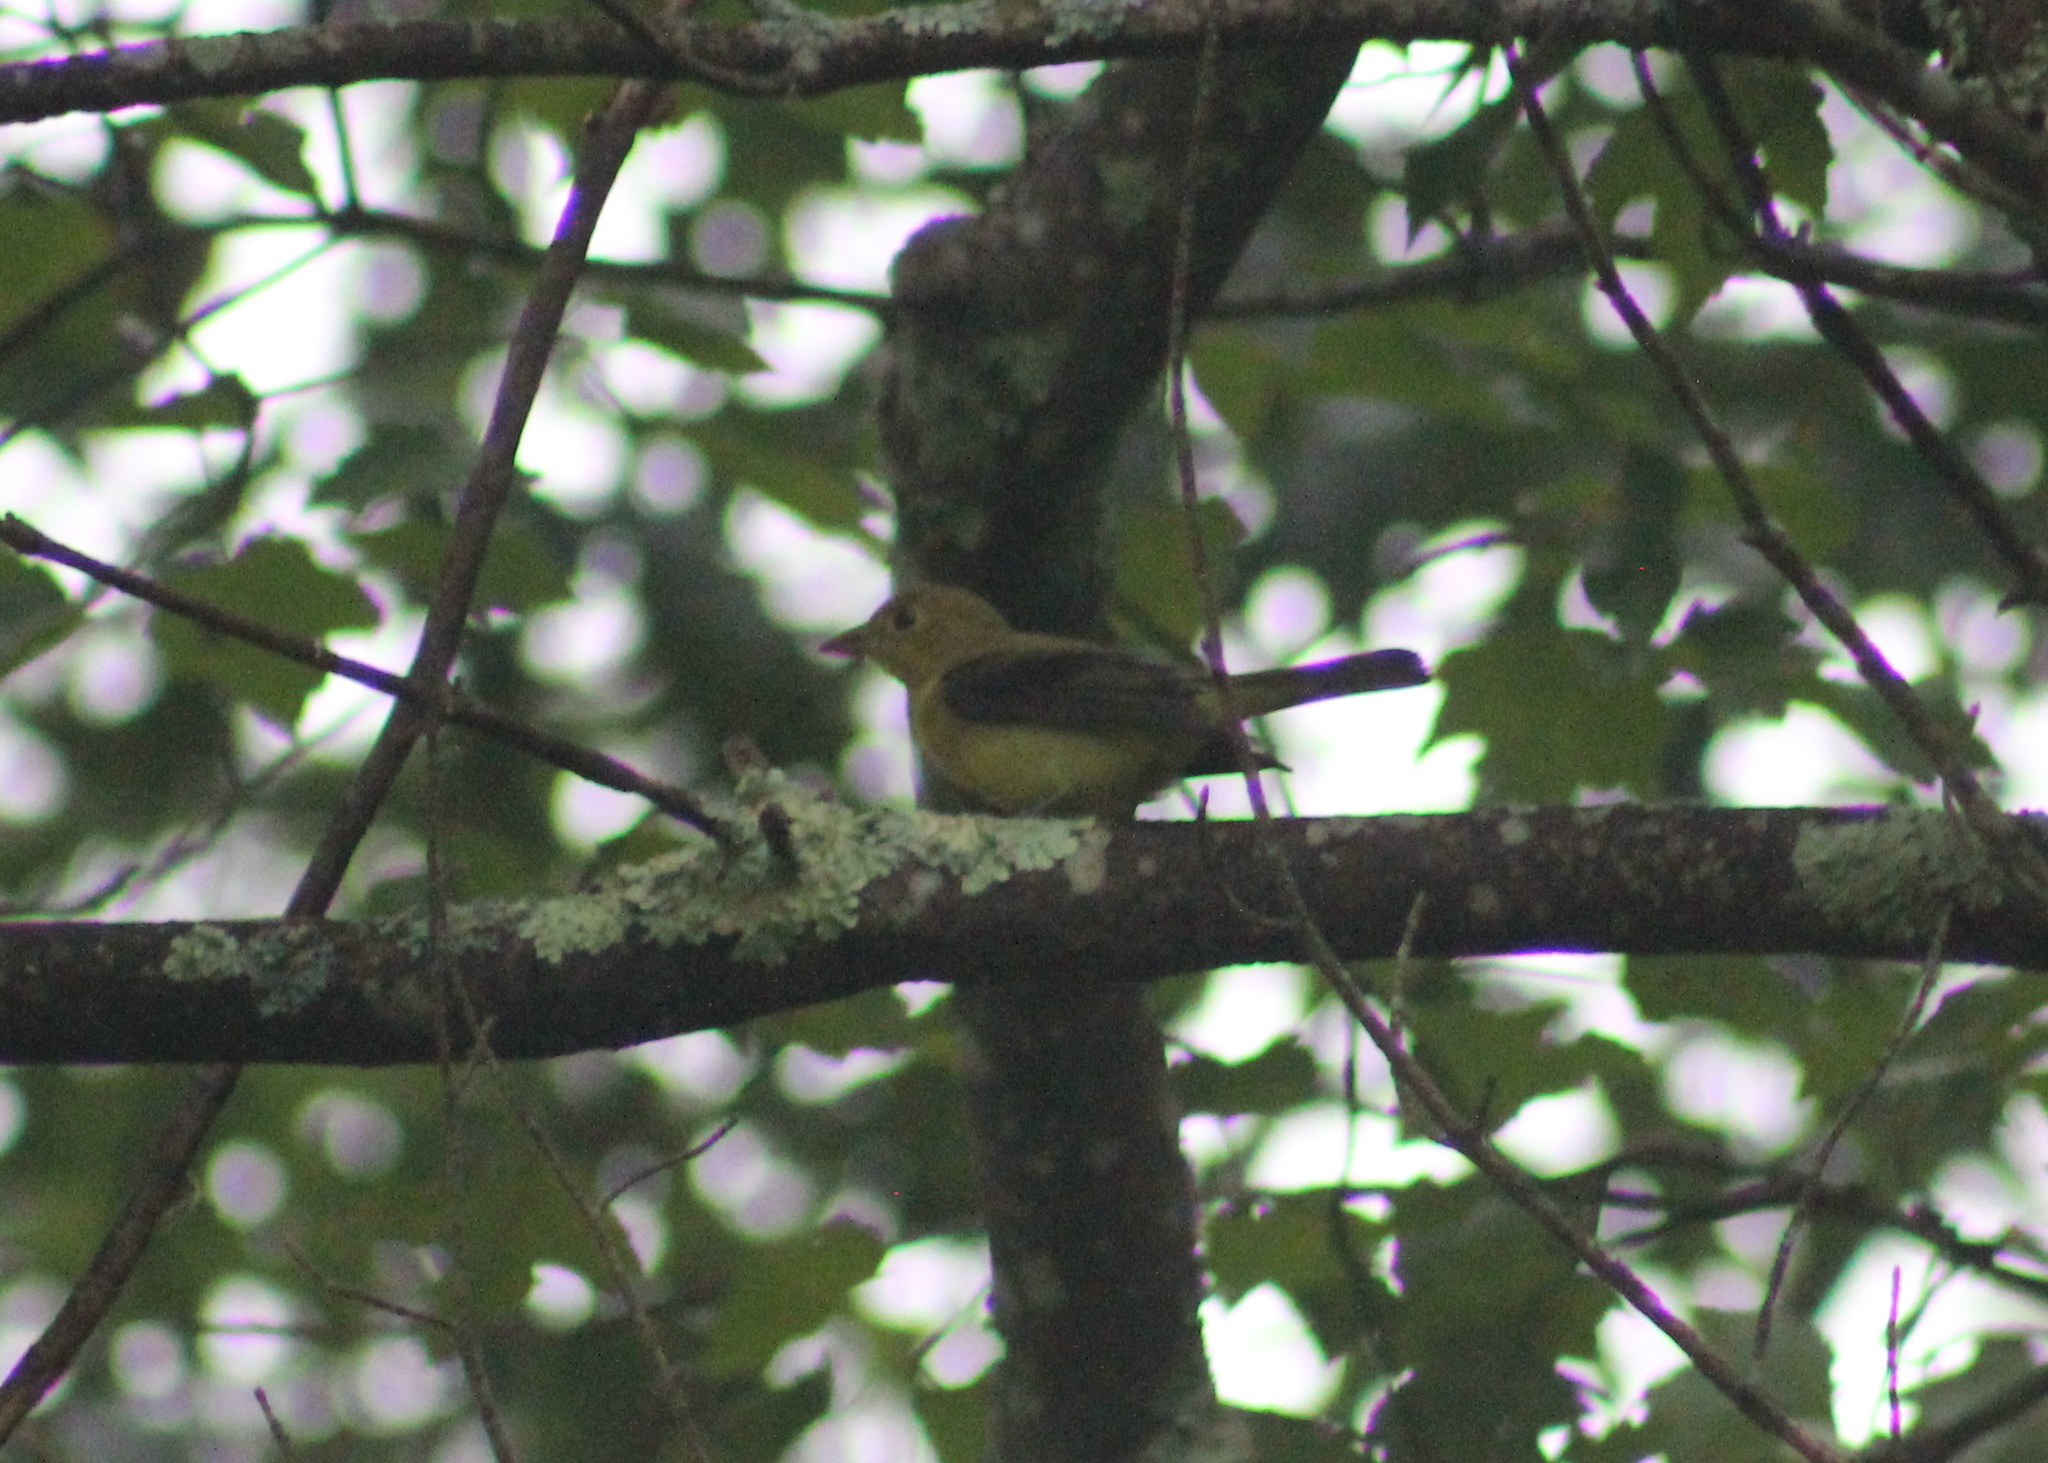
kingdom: Animalia
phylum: Chordata
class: Aves
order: Passeriformes
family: Cardinalidae
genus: Piranga
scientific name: Piranga olivacea
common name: Scarlet tanager
